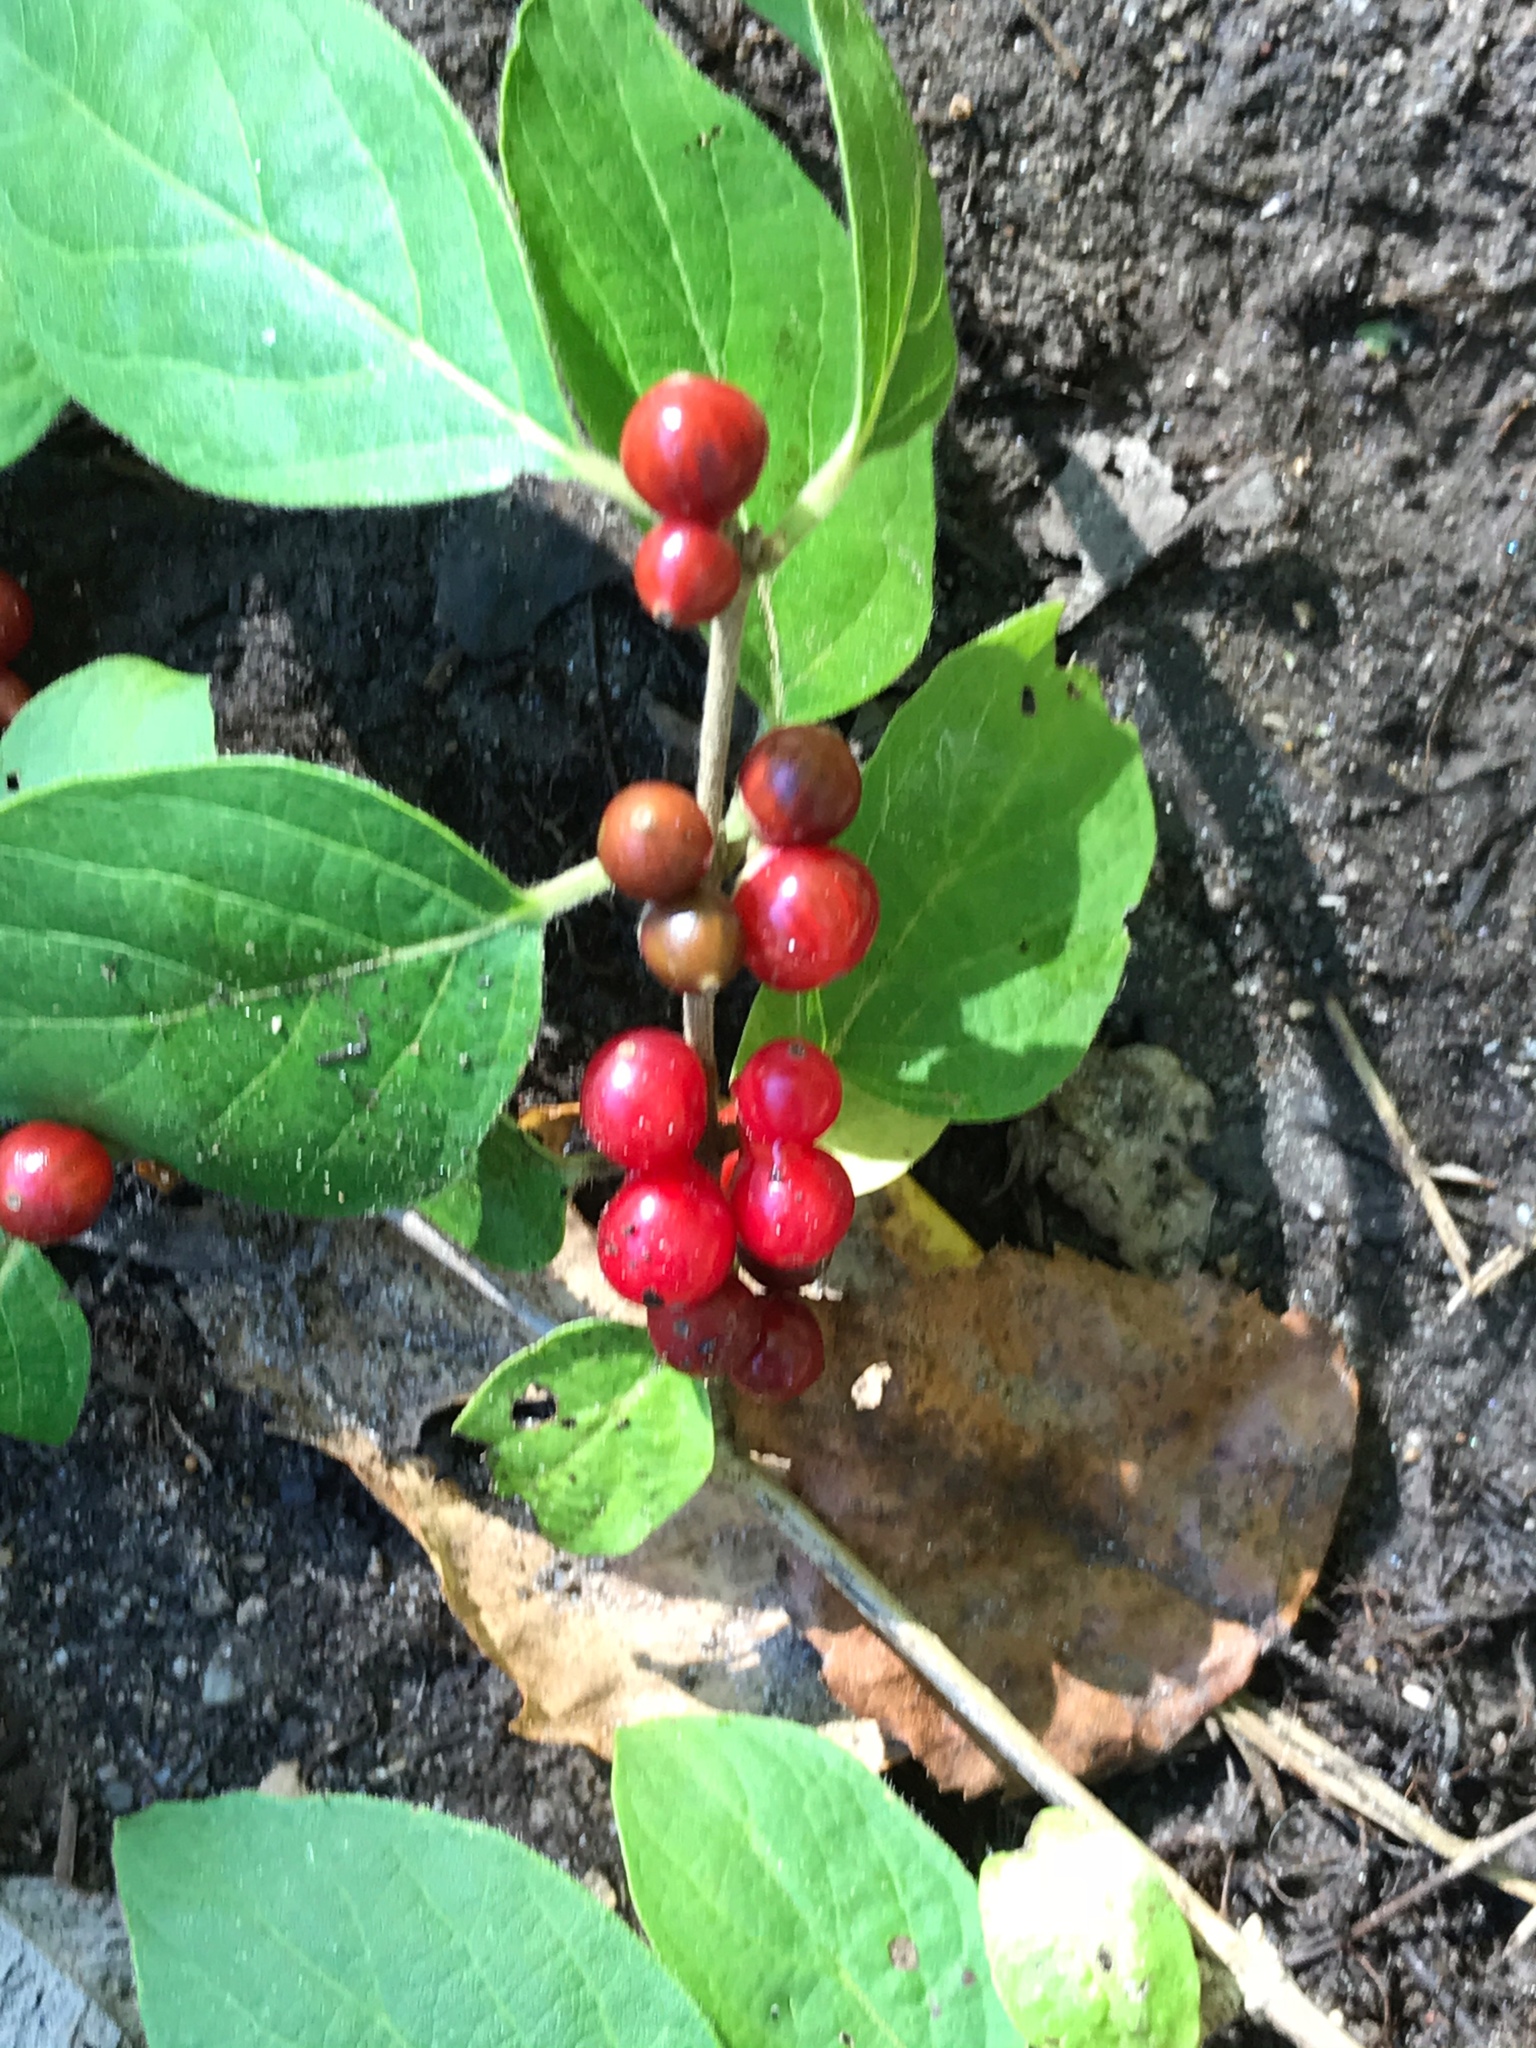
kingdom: Plantae
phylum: Tracheophyta
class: Magnoliopsida
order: Dipsacales
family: Caprifoliaceae
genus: Lonicera
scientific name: Lonicera maackii
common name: Amur honeysuckle
